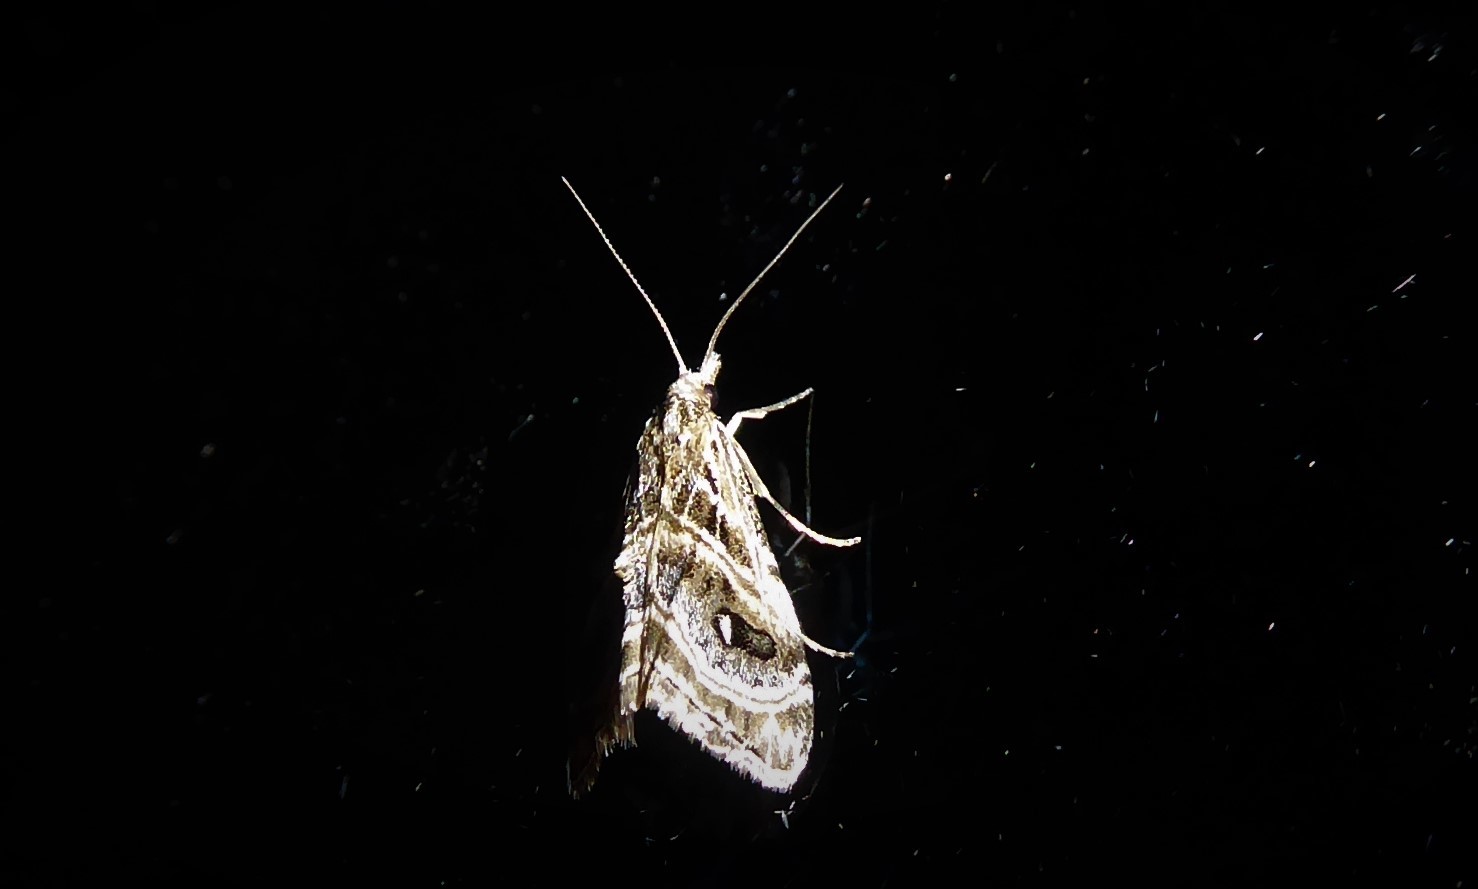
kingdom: Animalia
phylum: Arthropoda
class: Insecta
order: Lepidoptera
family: Crambidae
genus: Gadira
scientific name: Gadira acerella
